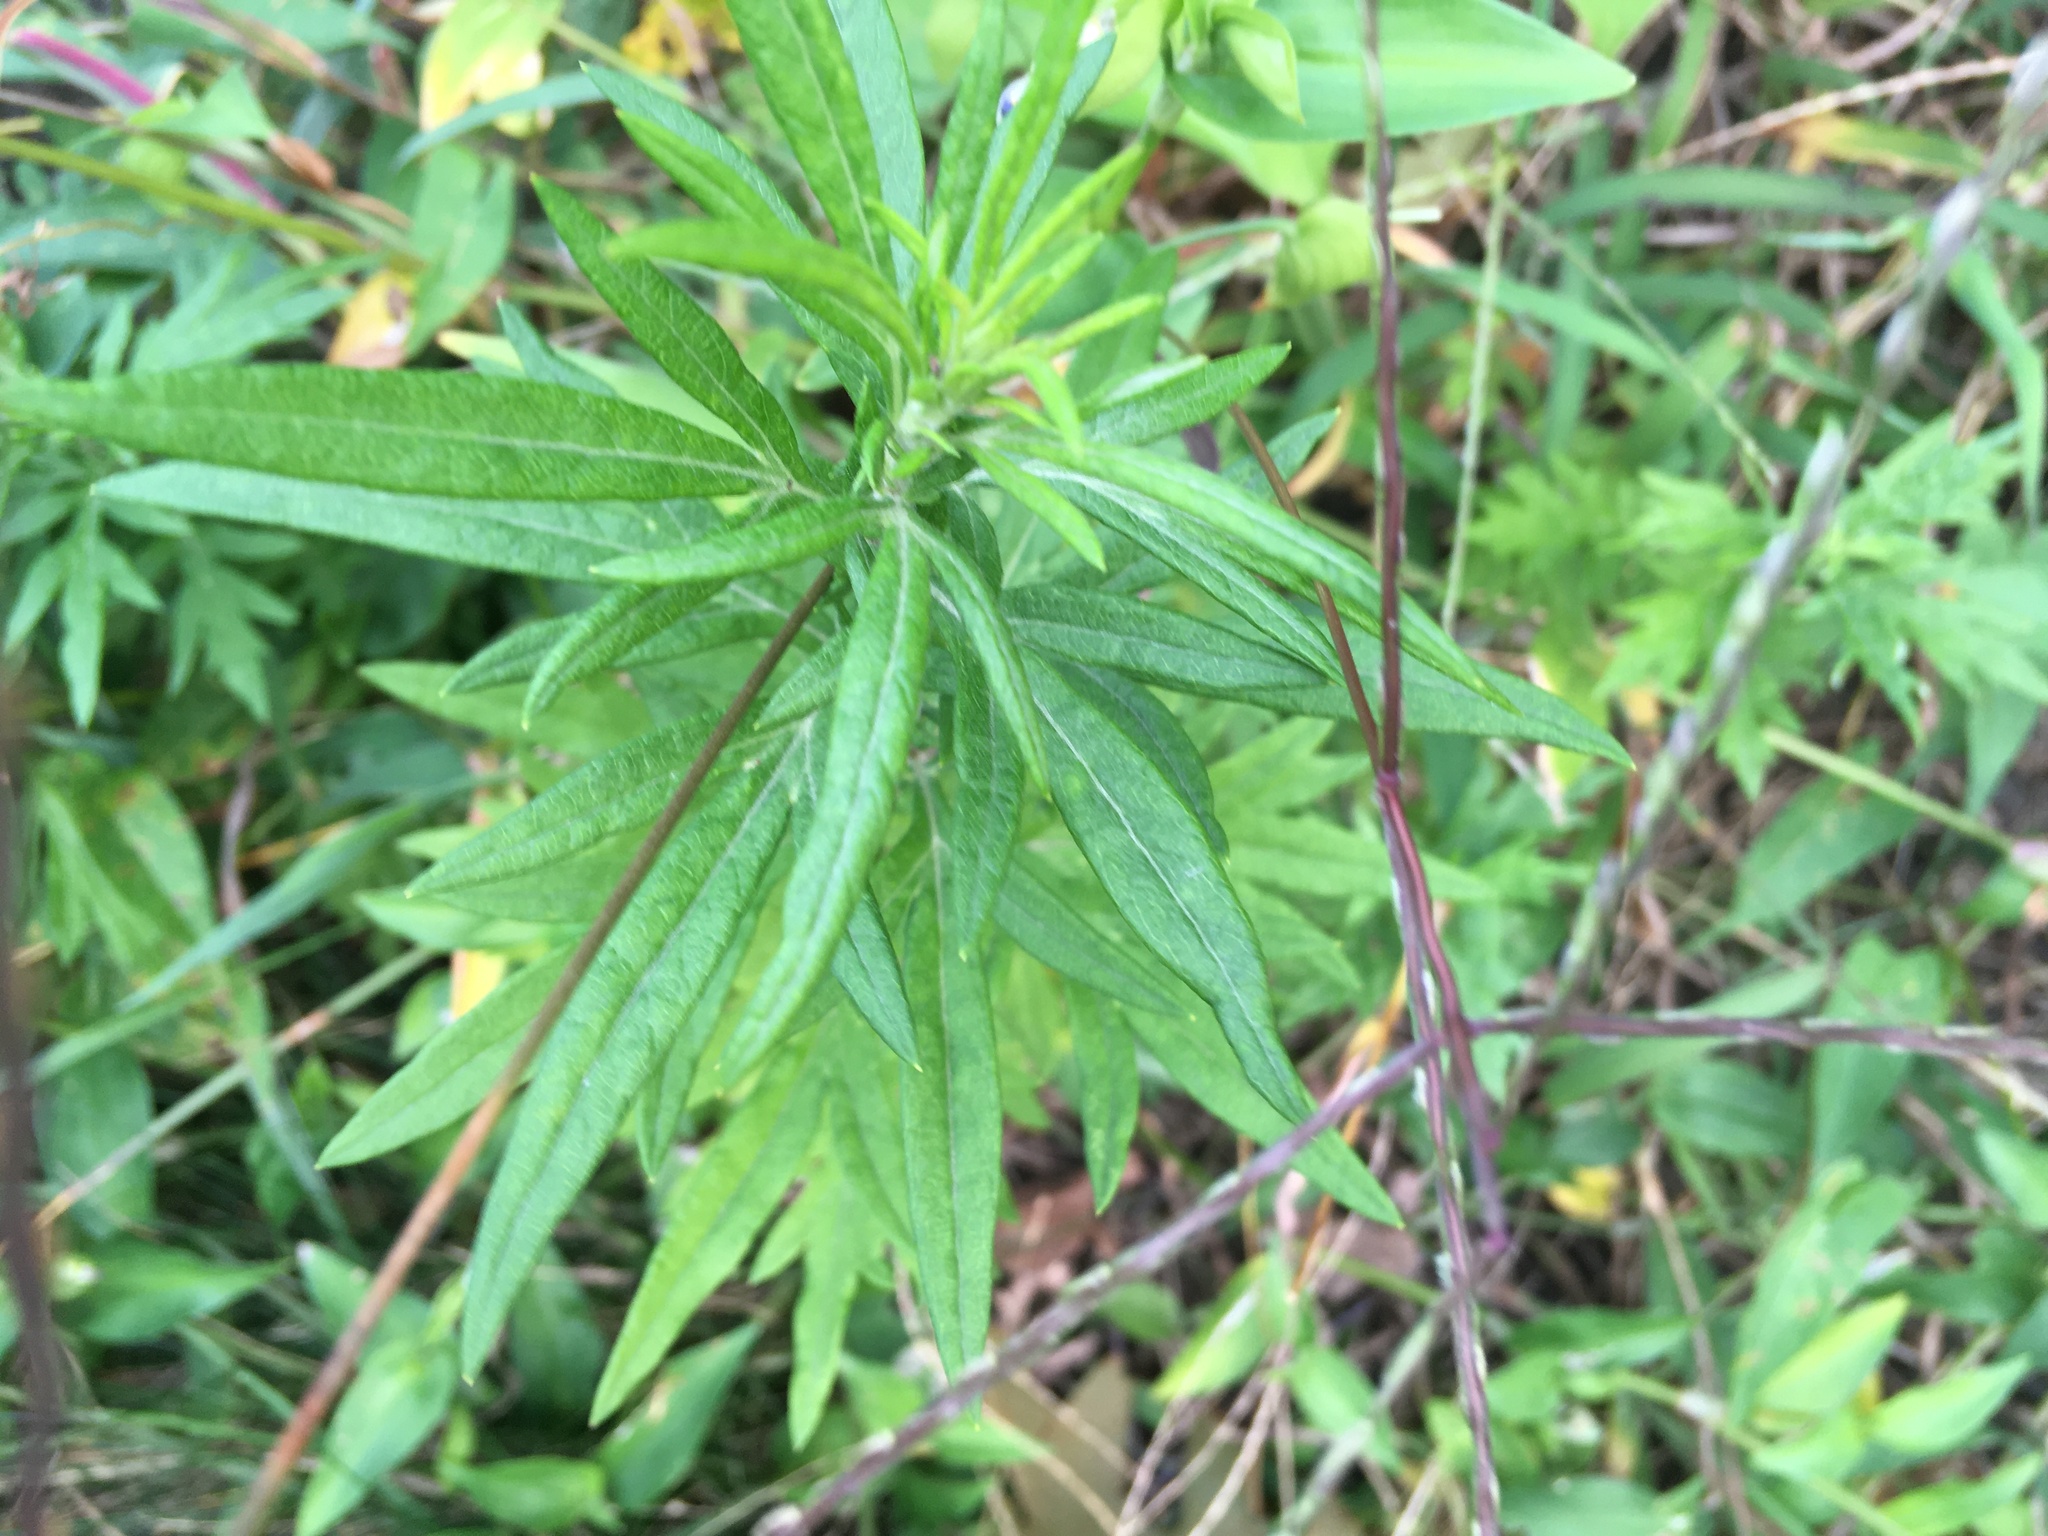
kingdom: Plantae
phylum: Tracheophyta
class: Magnoliopsida
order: Asterales
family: Asteraceae
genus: Artemisia
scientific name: Artemisia vulgaris
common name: Mugwort
